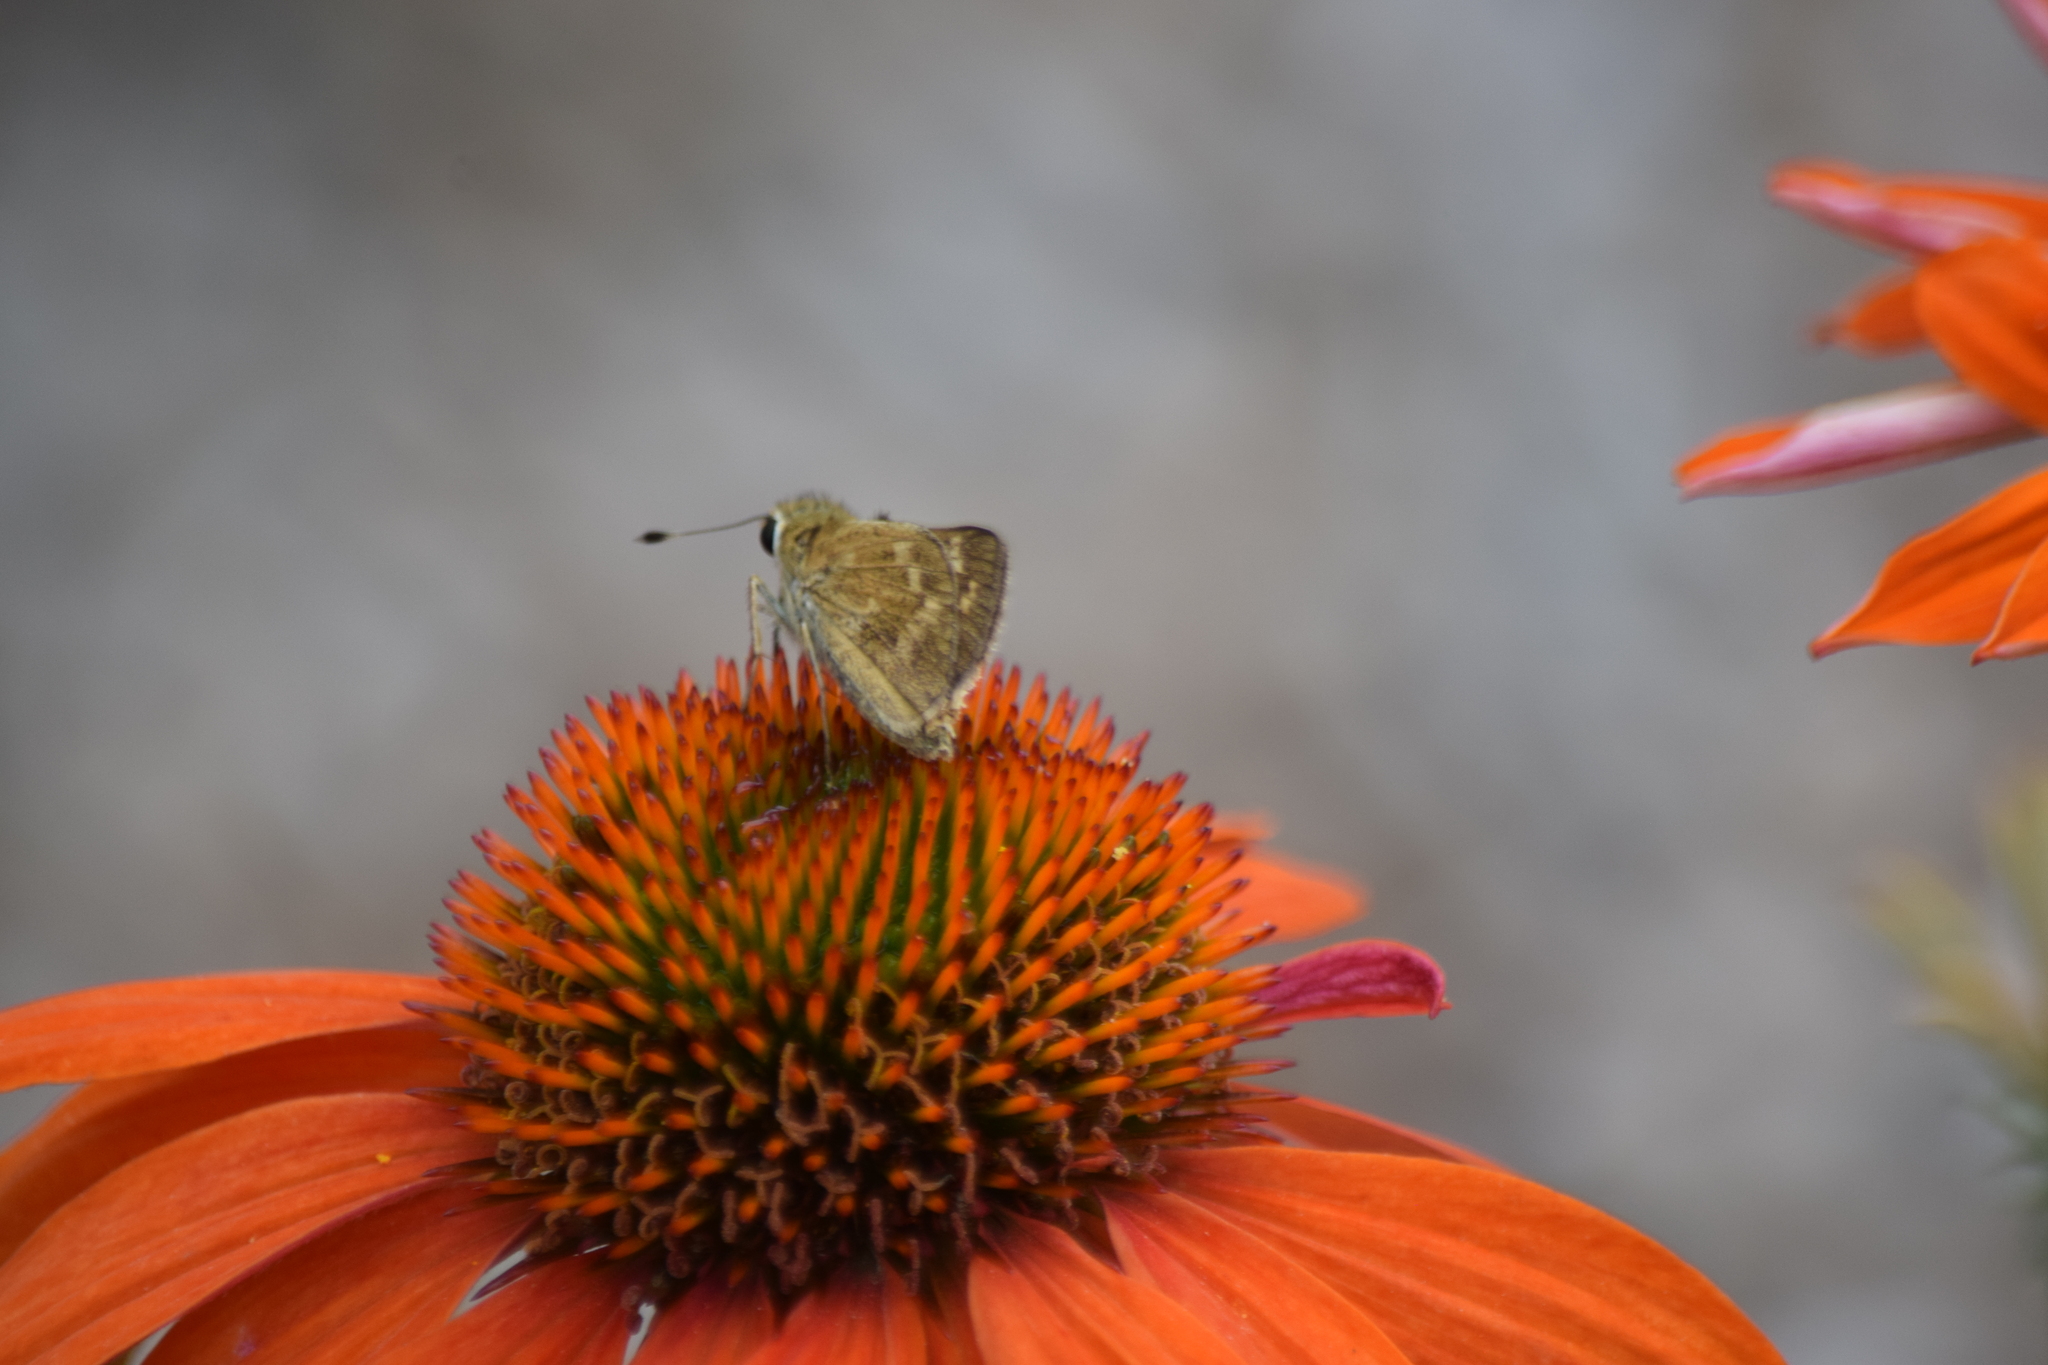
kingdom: Animalia
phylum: Arthropoda
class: Insecta
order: Lepidoptera
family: Hesperiidae
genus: Atalopedes
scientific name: Atalopedes
